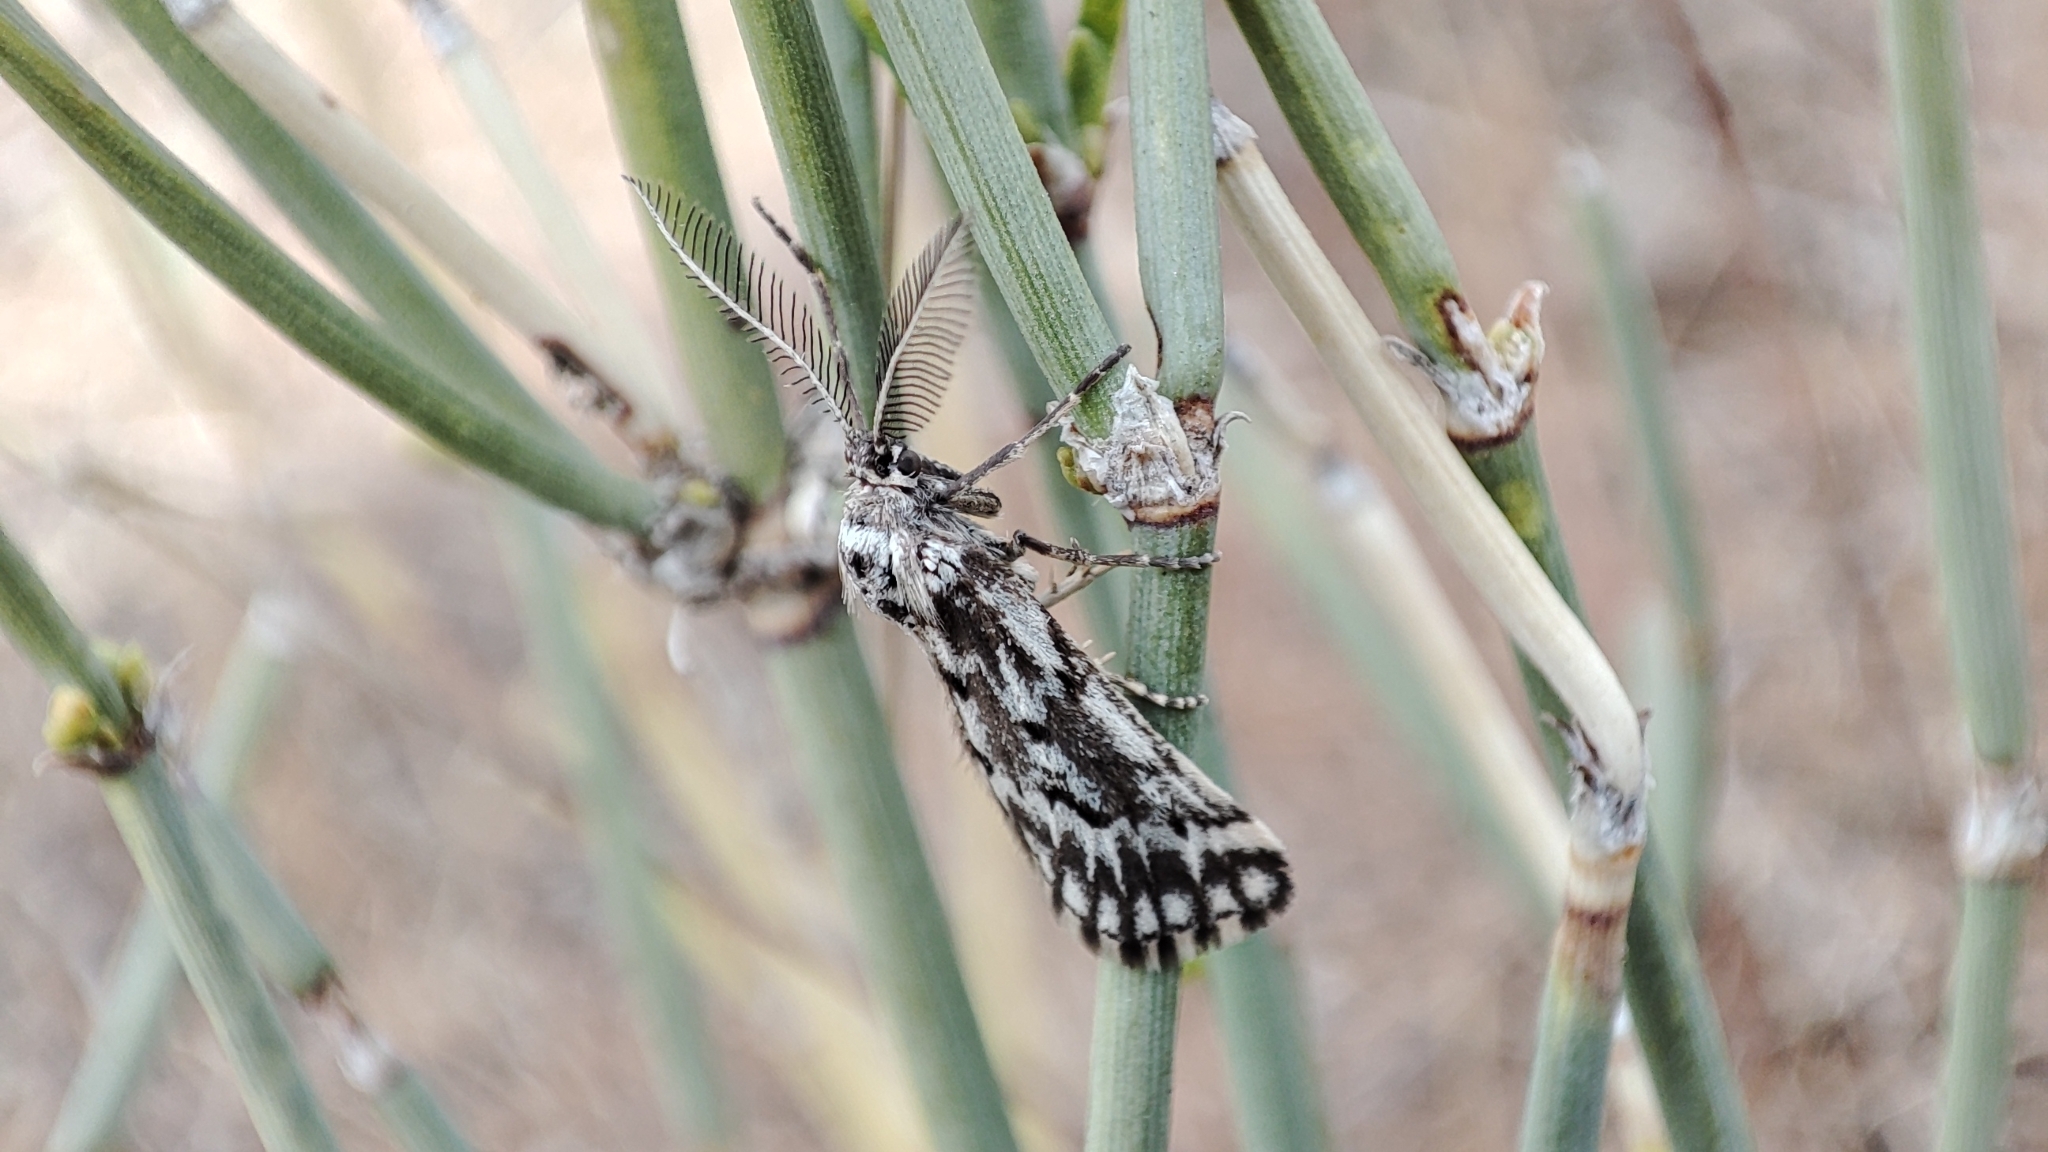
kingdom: Animalia
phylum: Arthropoda
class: Insecta
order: Lepidoptera
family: Geometridae
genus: Phyllometra
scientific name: Phyllometra culminaria
